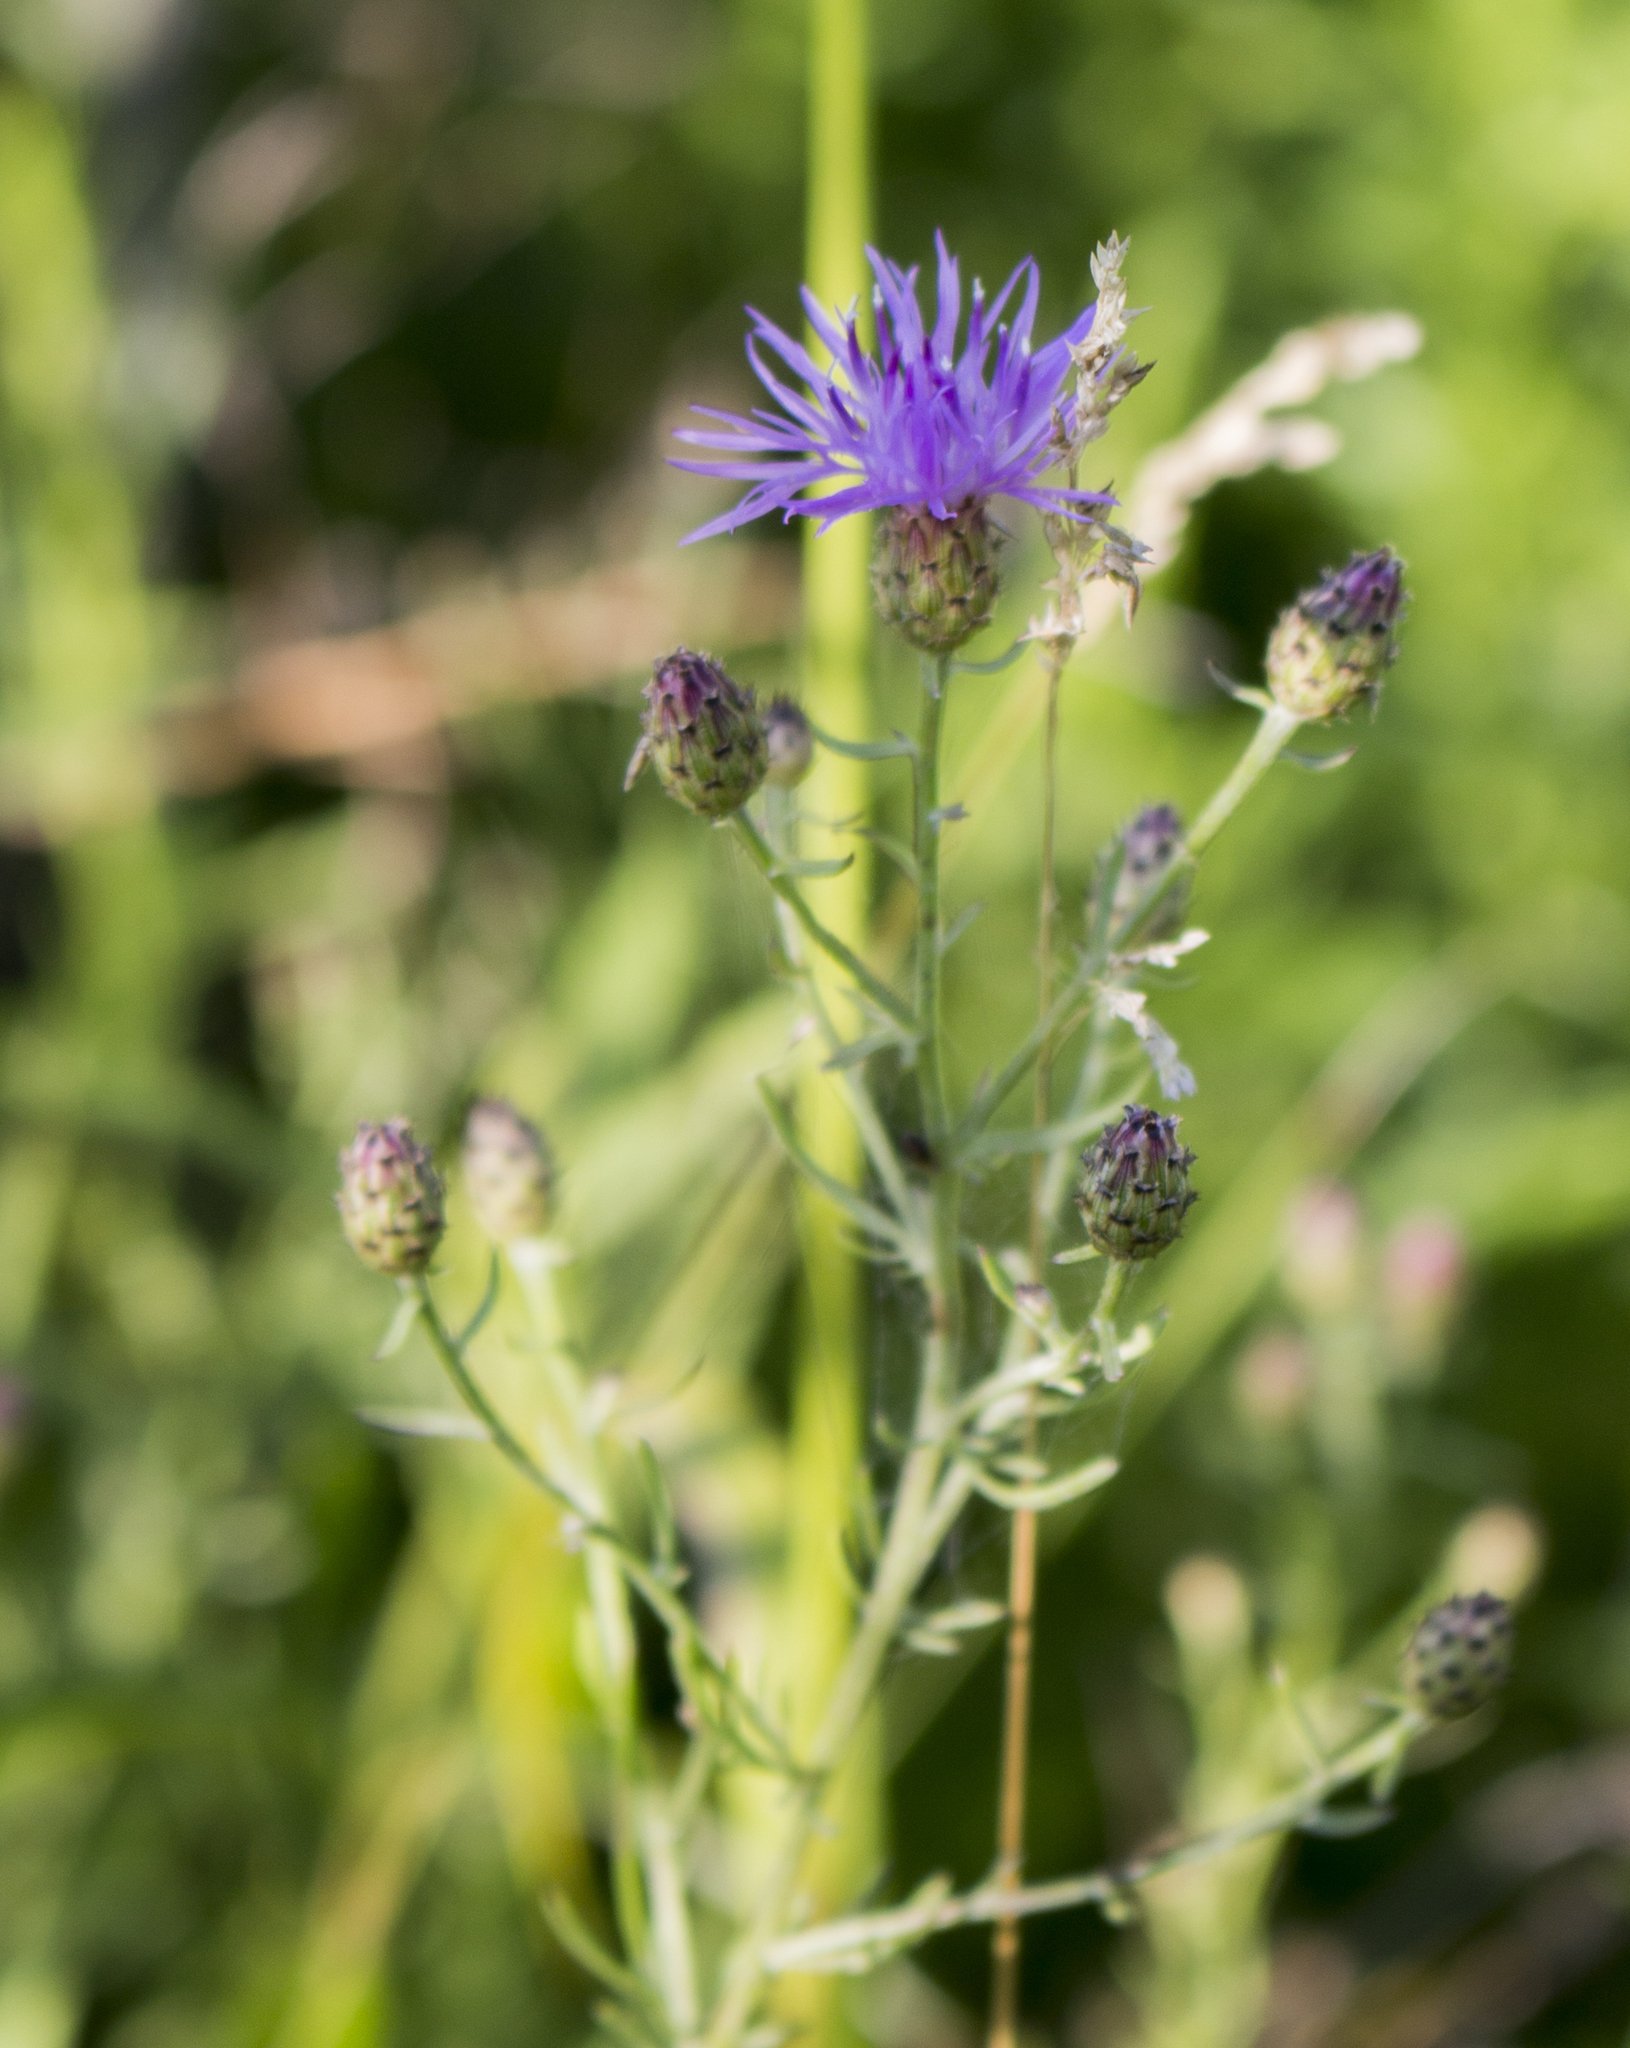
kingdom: Plantae
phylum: Tracheophyta
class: Magnoliopsida
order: Asterales
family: Asteraceae
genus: Centaurea
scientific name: Centaurea stoebe
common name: Spotted knapweed
